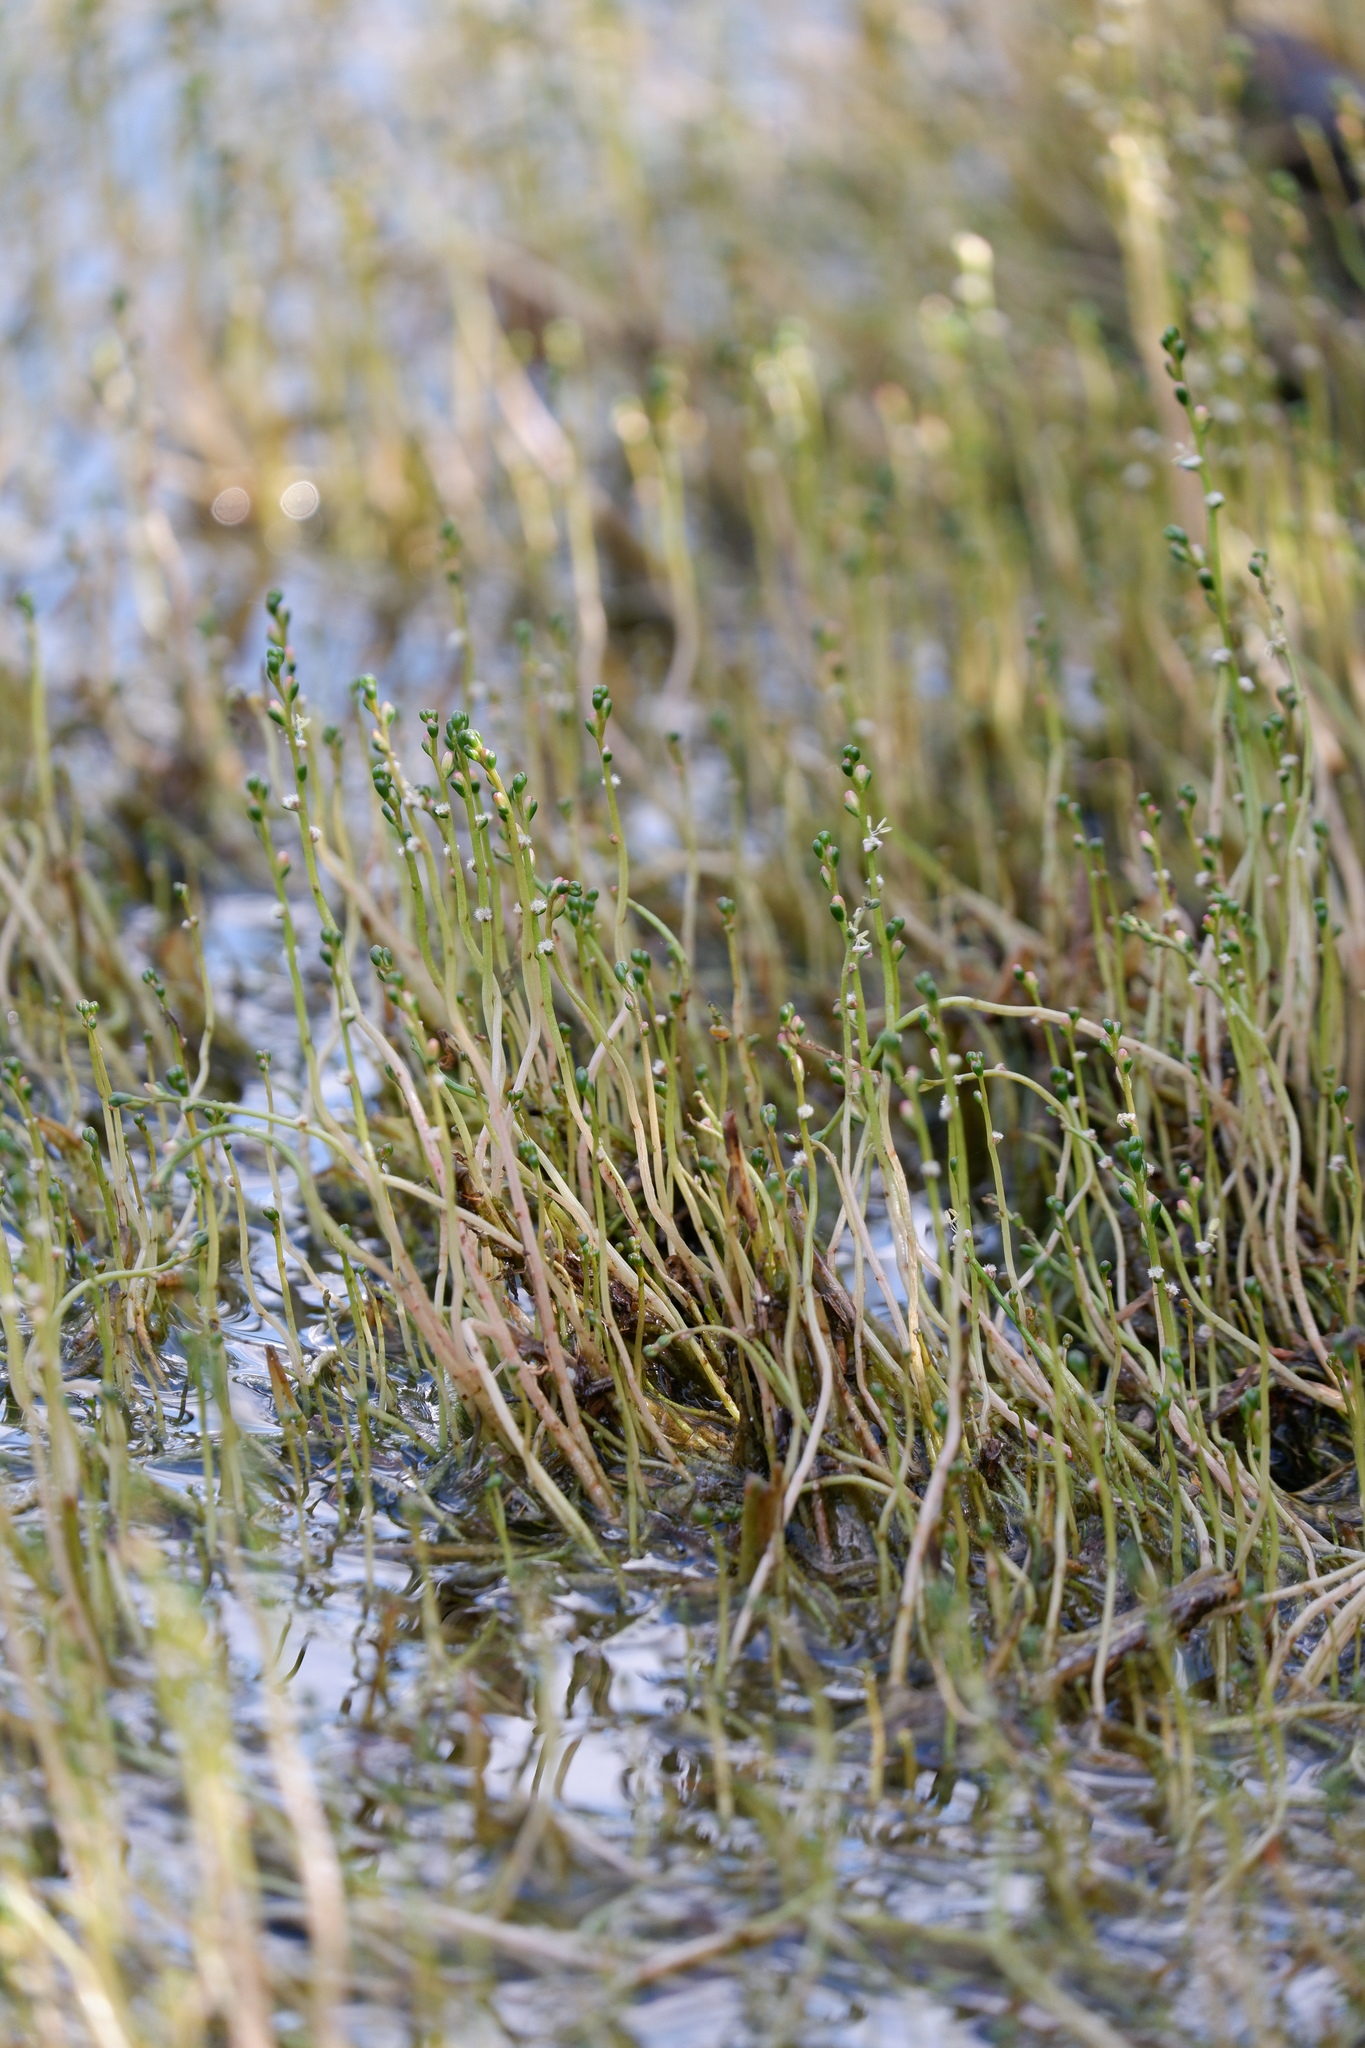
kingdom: Plantae
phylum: Tracheophyta
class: Magnoliopsida
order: Saxifragales
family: Haloragaceae
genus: Myriophyllum
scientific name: Myriophyllum tenellum
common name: Slender water-milfoil
